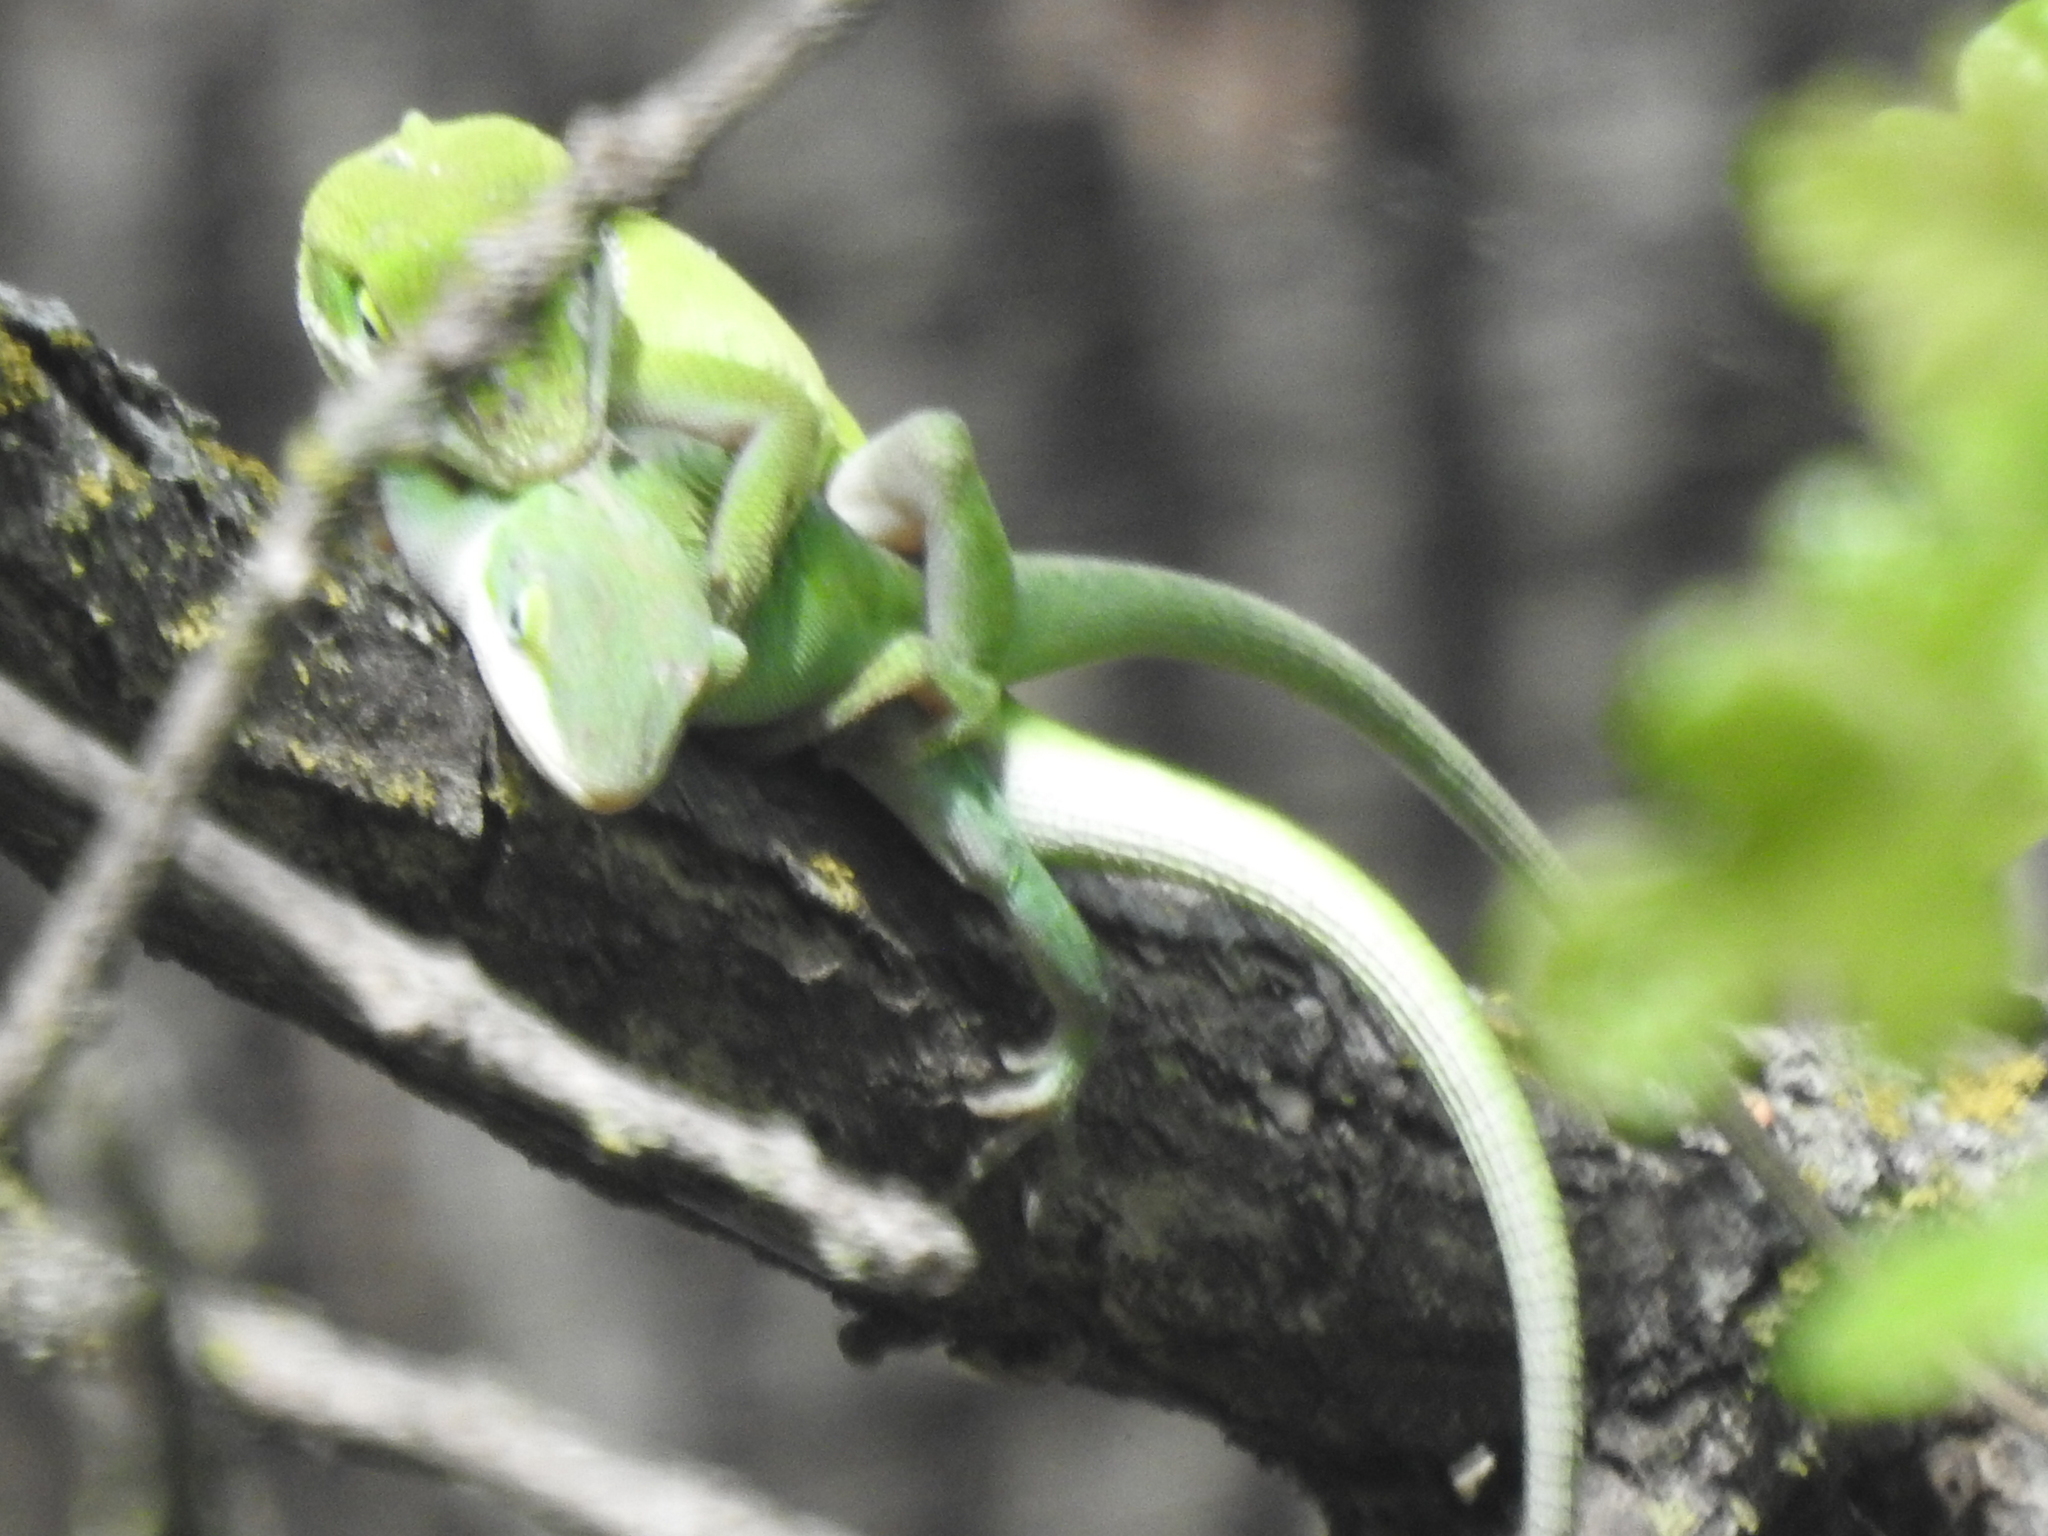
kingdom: Animalia
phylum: Chordata
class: Squamata
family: Dactyloidae
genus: Anolis
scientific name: Anolis carolinensis
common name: Green anole
